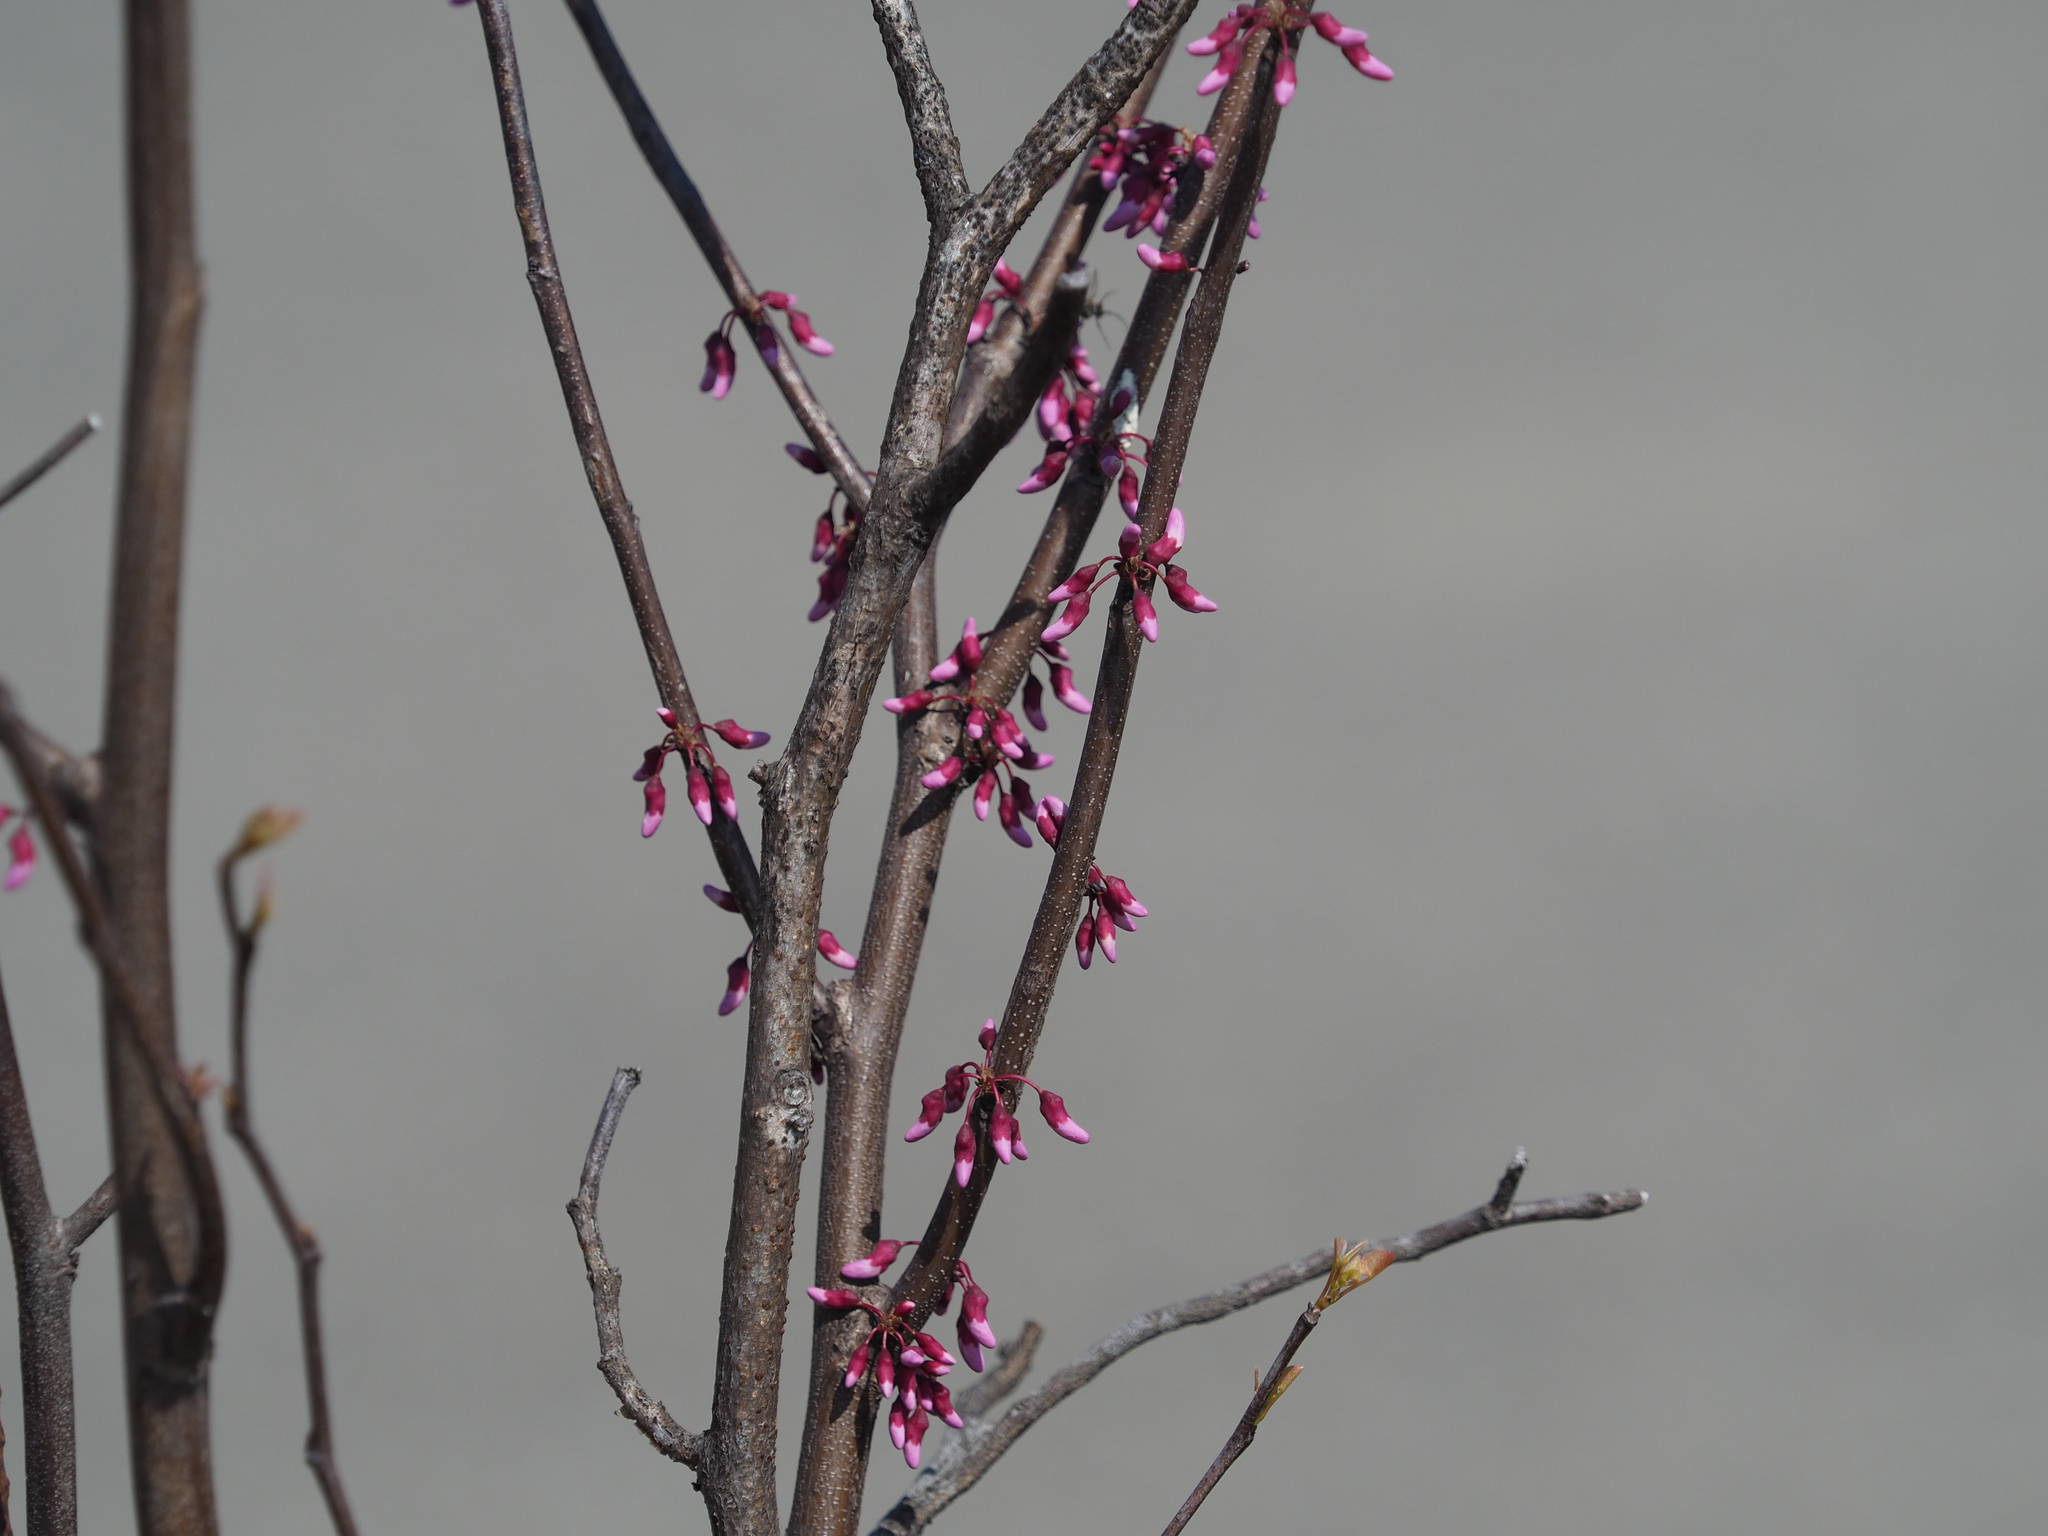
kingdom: Plantae
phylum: Tracheophyta
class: Magnoliopsida
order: Fabales
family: Fabaceae
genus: Cercis
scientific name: Cercis canadensis
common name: Eastern redbud
